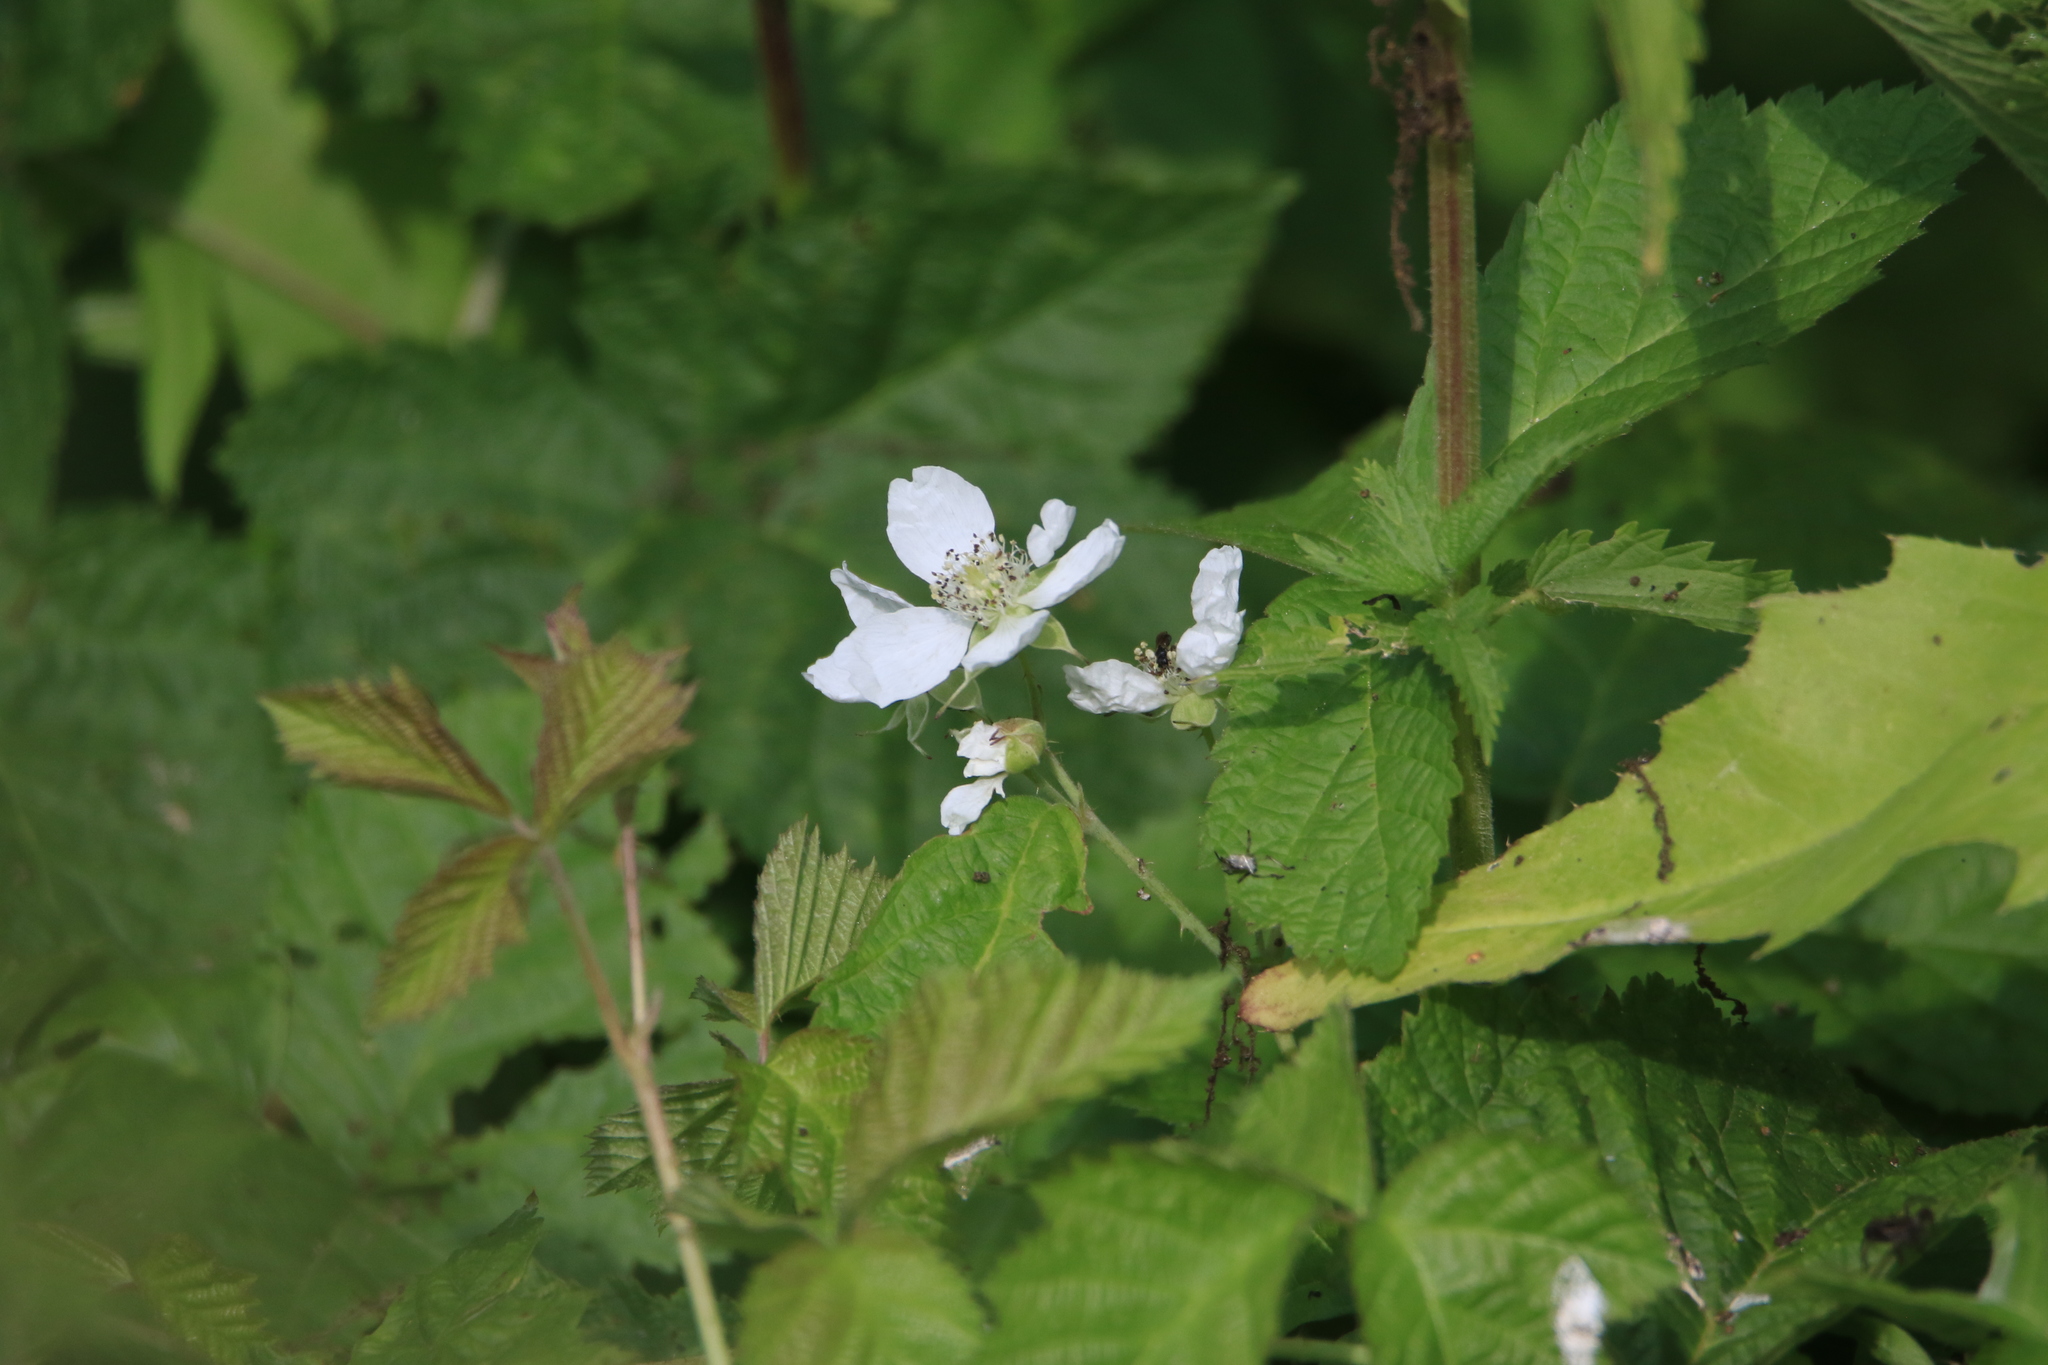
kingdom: Plantae
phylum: Tracheophyta
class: Magnoliopsida
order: Rosales
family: Rosaceae
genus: Rubus
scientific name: Rubus caesius
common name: Dewberry
